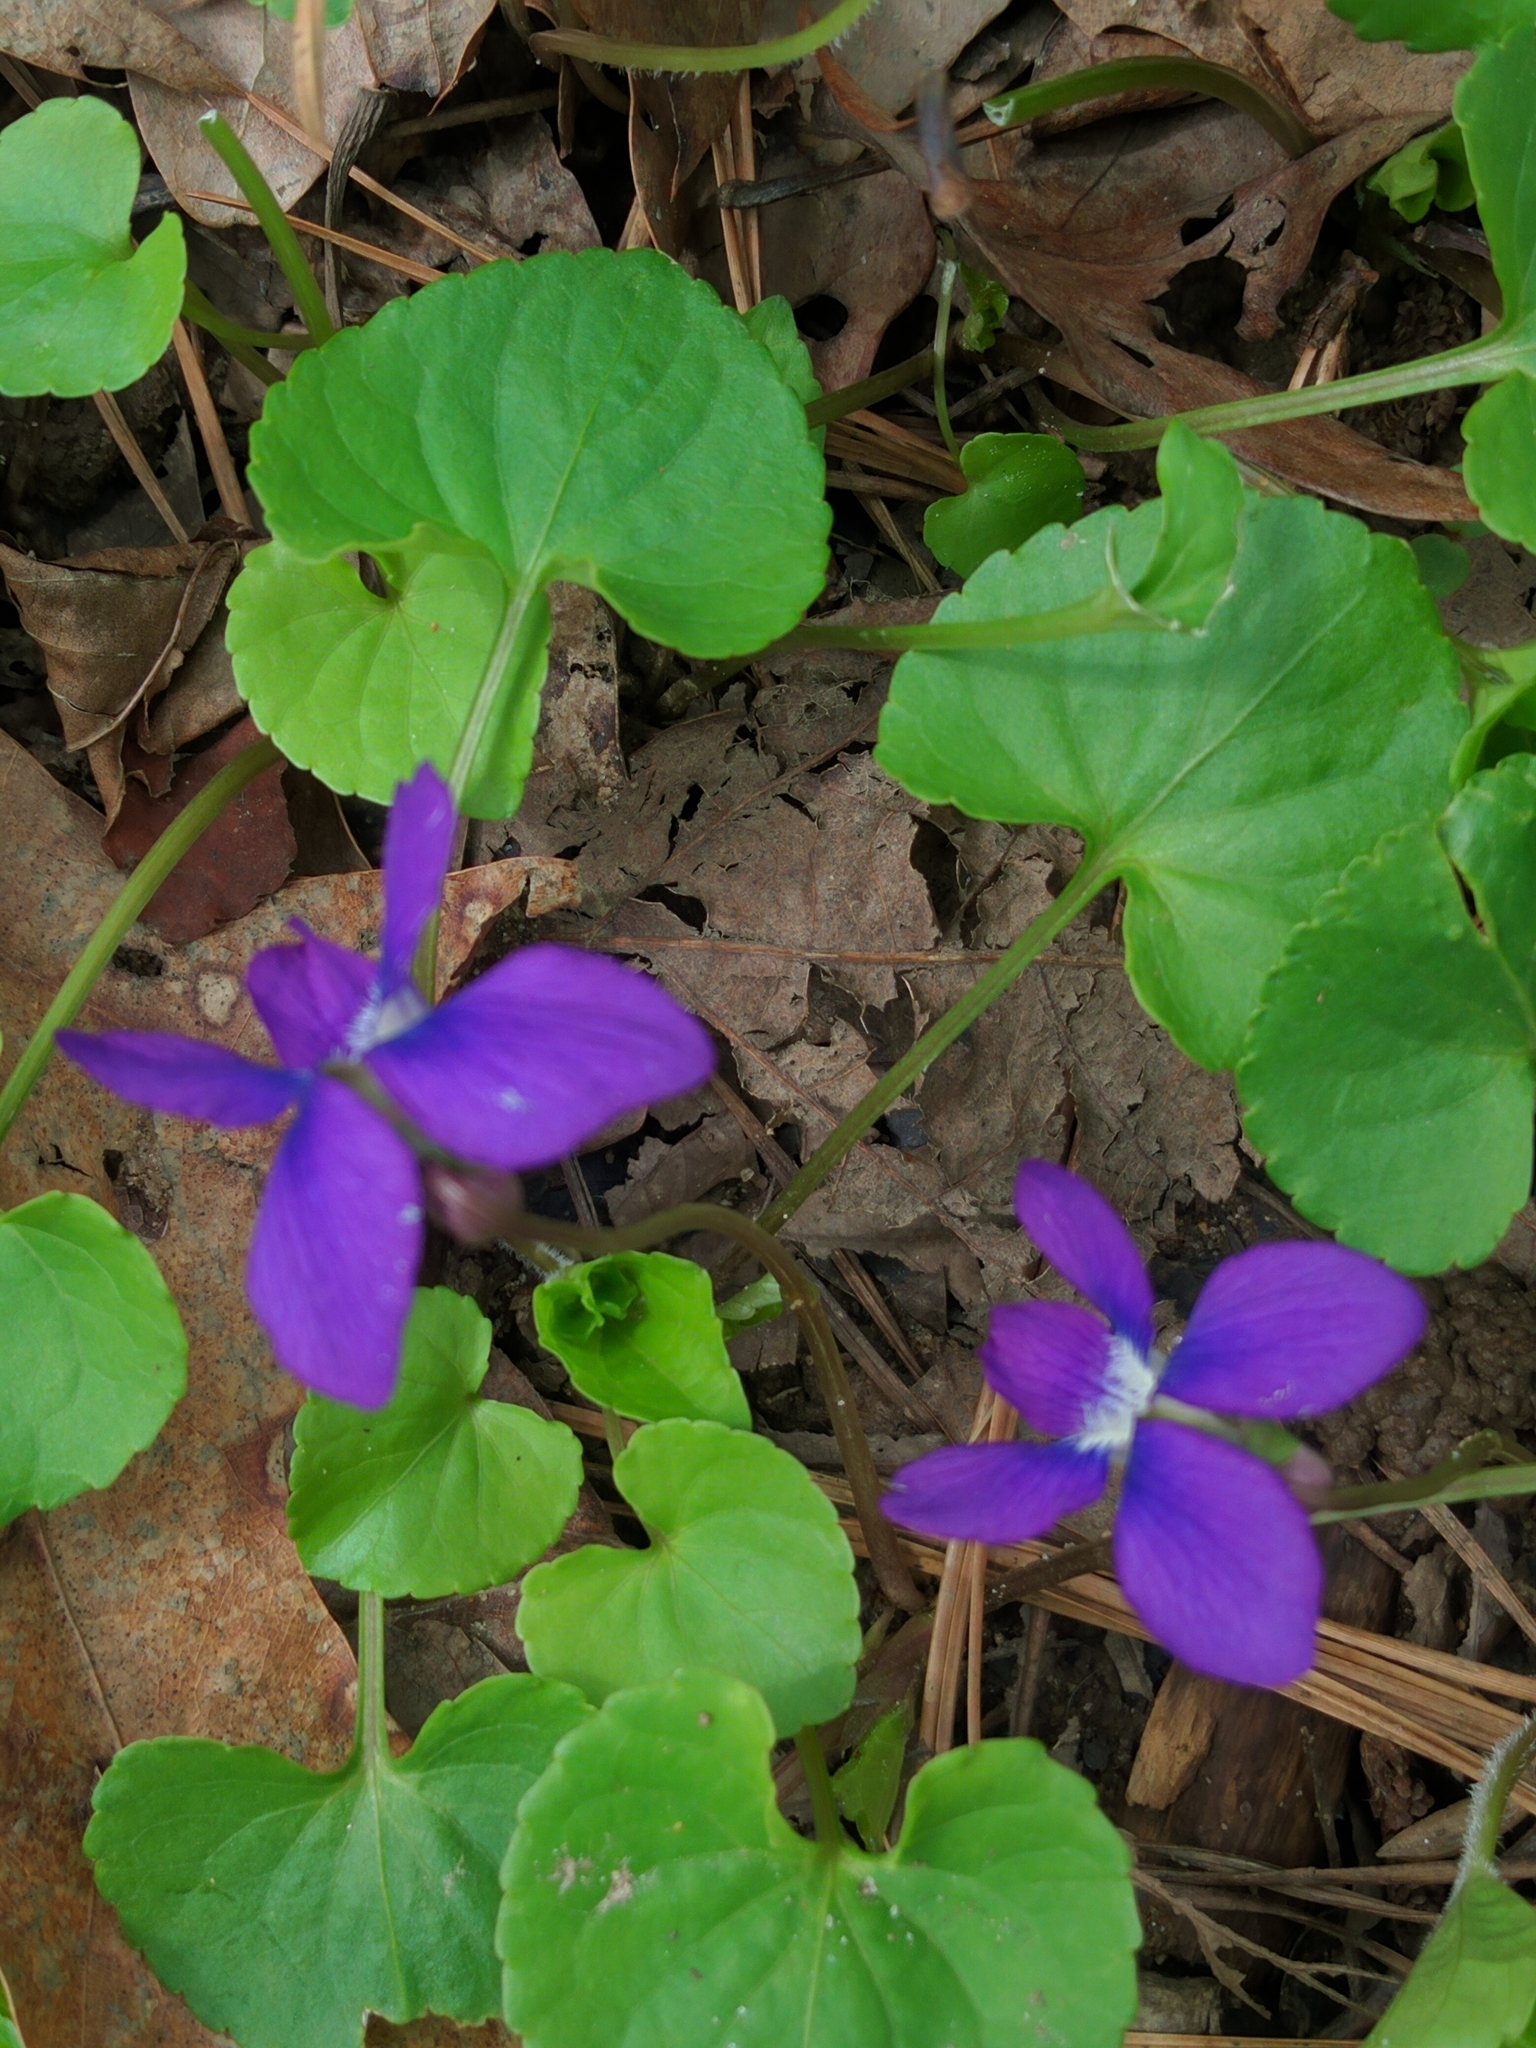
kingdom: Plantae
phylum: Tracheophyta
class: Magnoliopsida
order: Malpighiales
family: Violaceae
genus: Viola
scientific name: Viola sororia
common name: Dooryard violet
